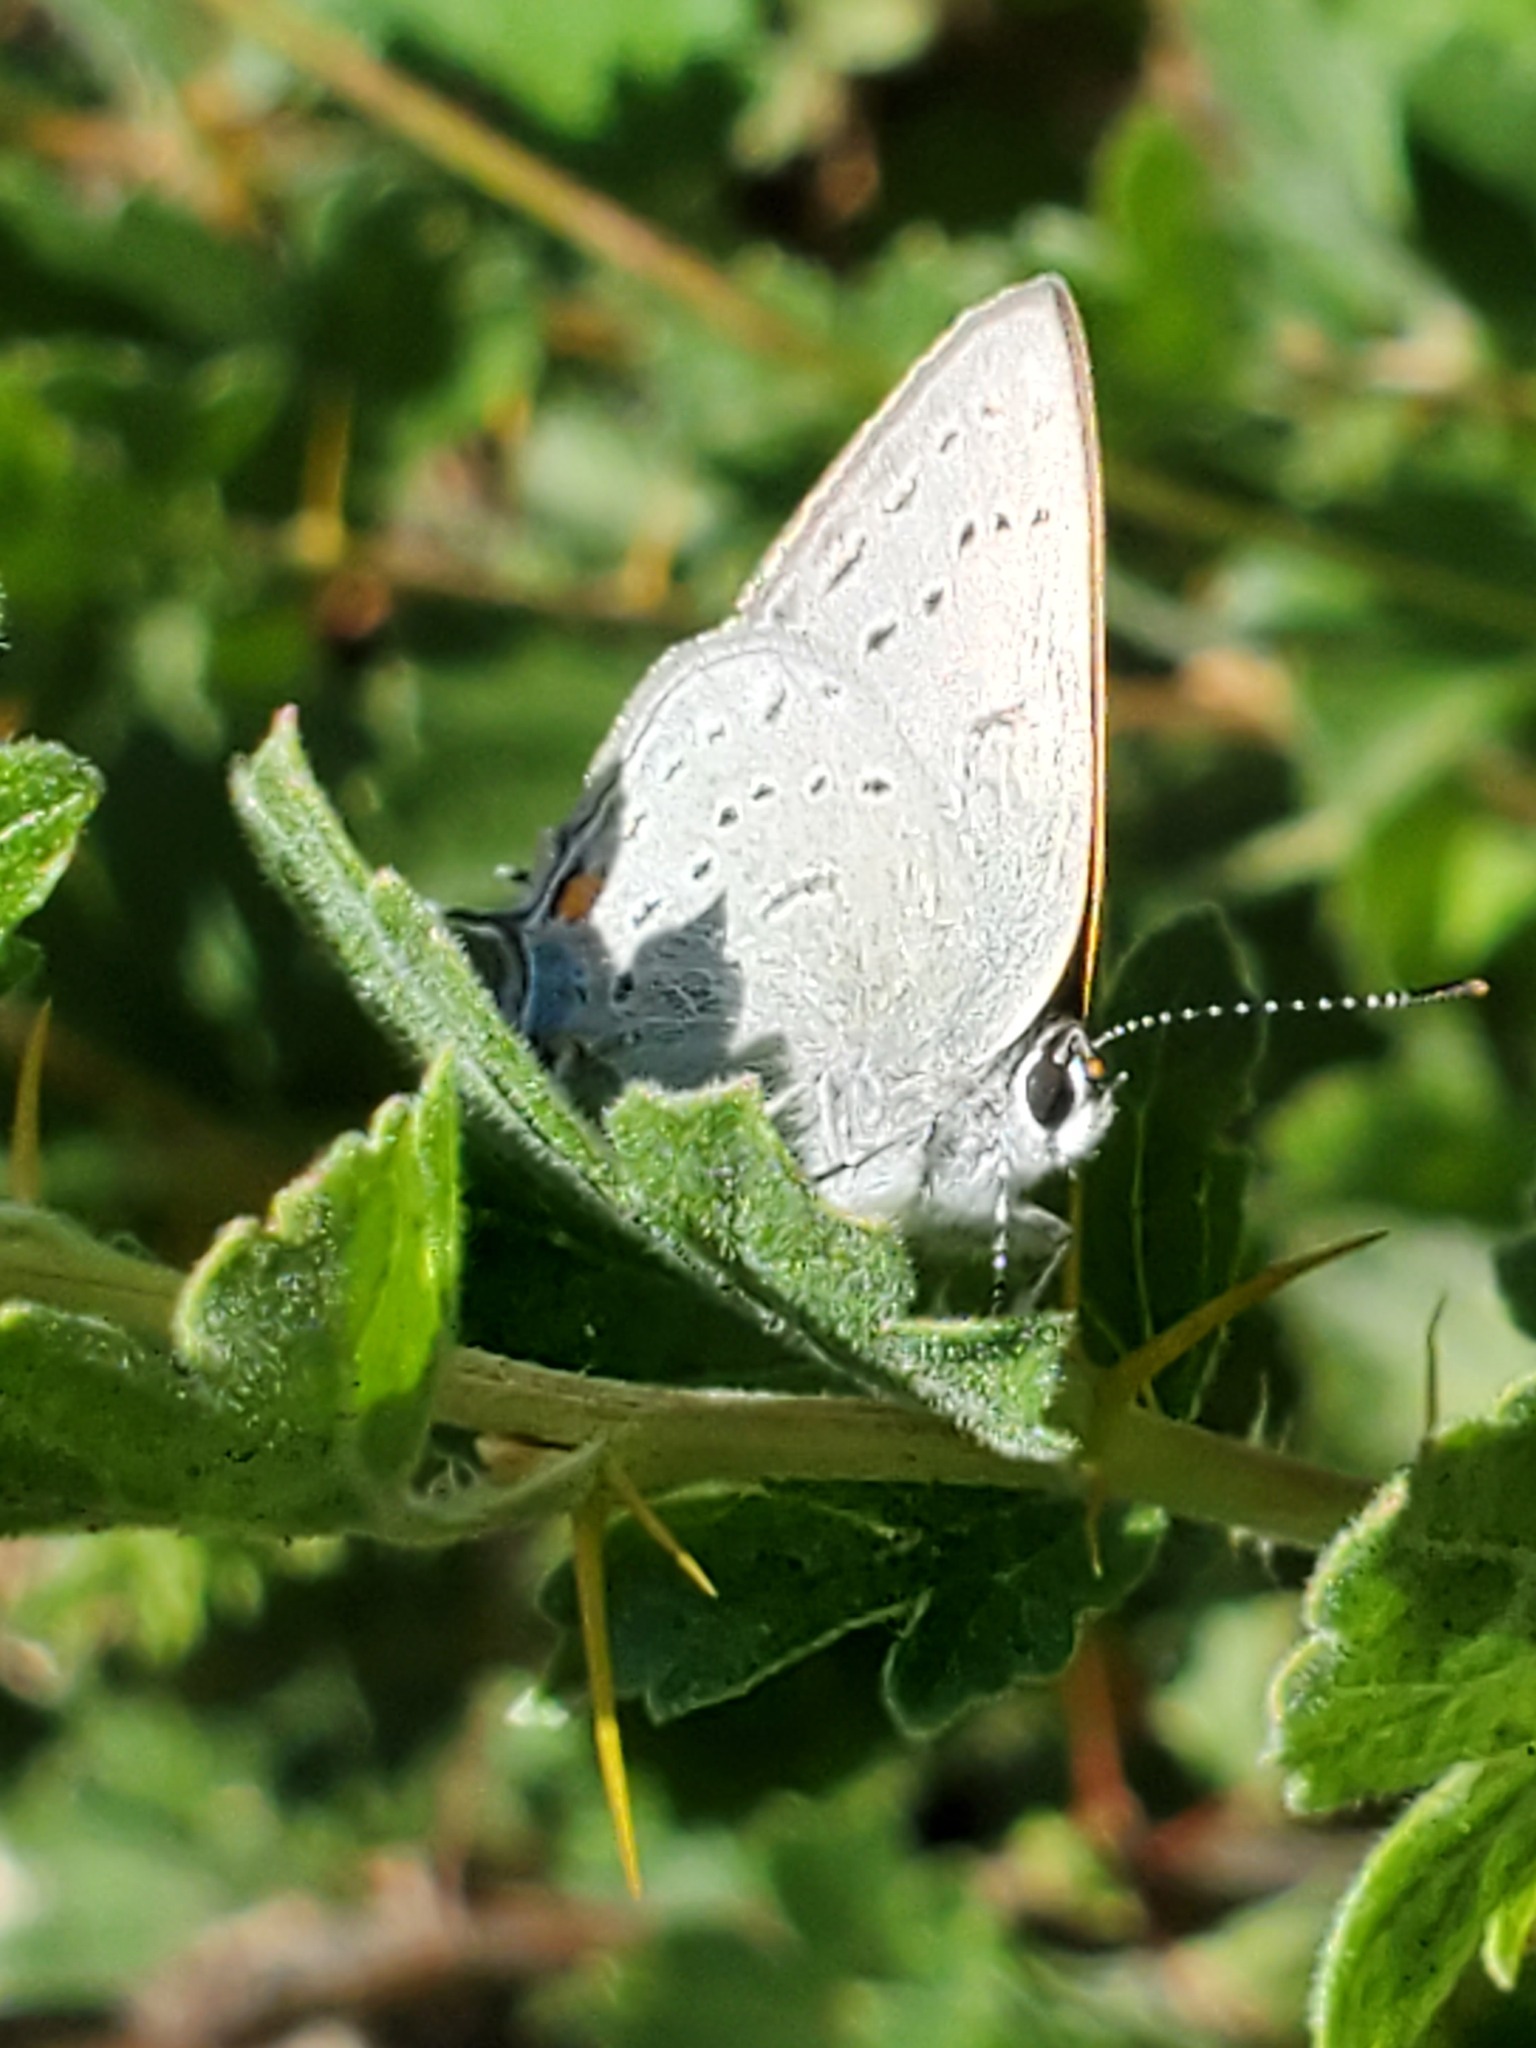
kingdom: Animalia
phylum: Arthropoda
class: Insecta
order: Lepidoptera
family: Lycaenidae
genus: Strymon
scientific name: Strymon sylvinus
